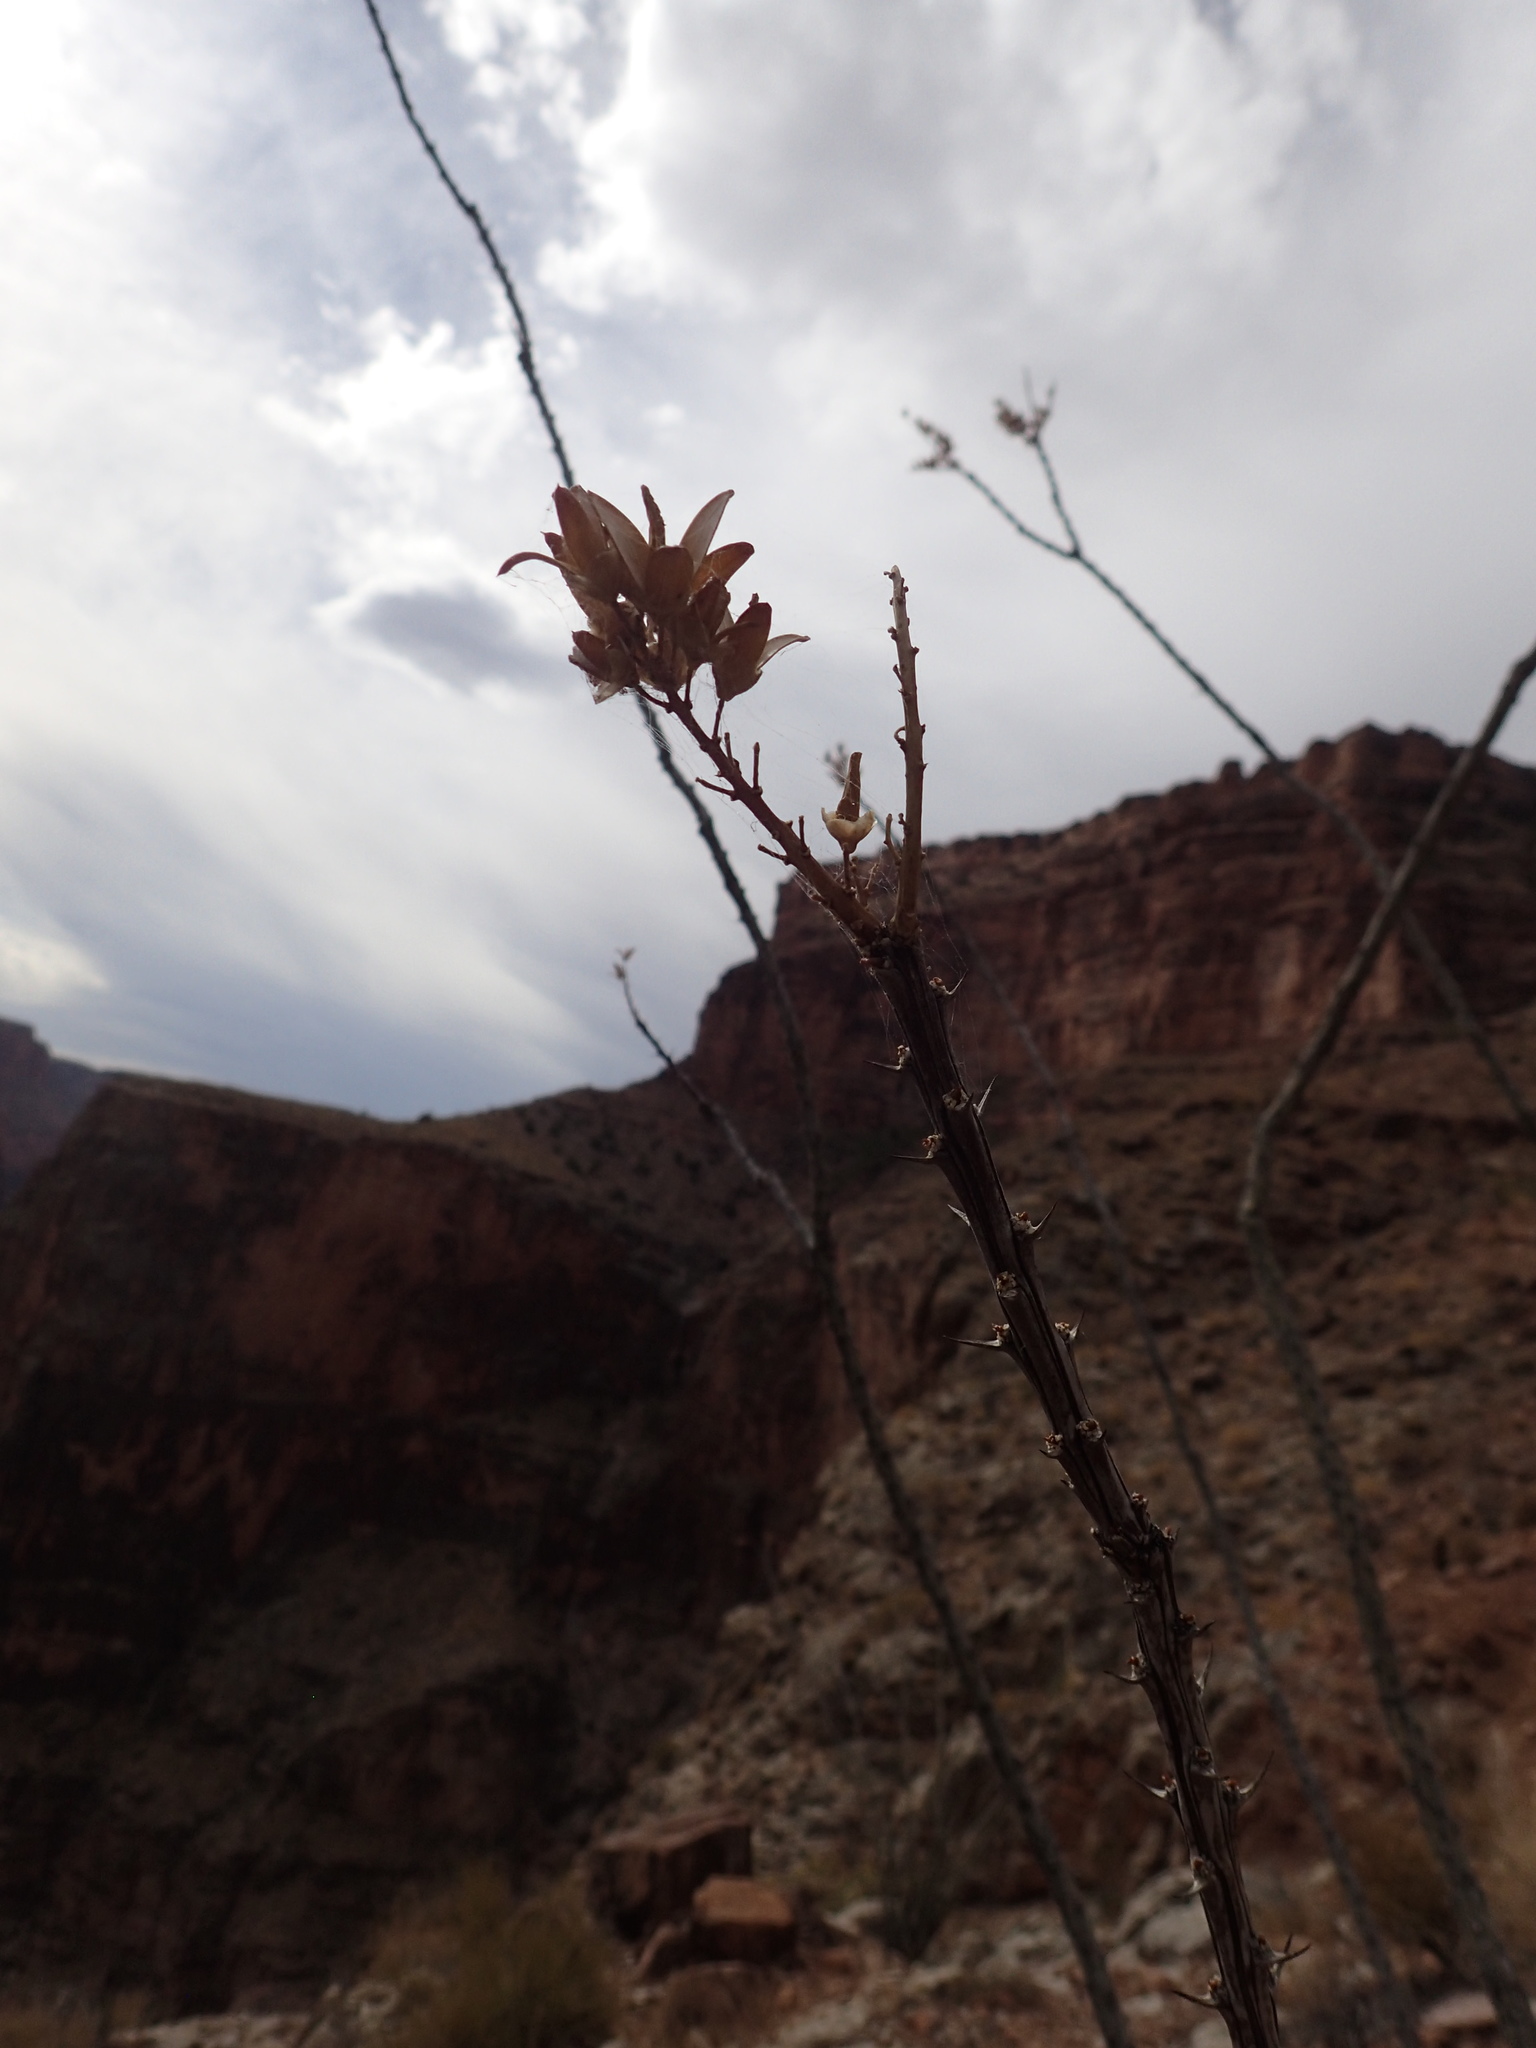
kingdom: Plantae
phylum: Tracheophyta
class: Magnoliopsida
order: Ericales
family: Fouquieriaceae
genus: Fouquieria
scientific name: Fouquieria splendens
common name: Vine-cactus
